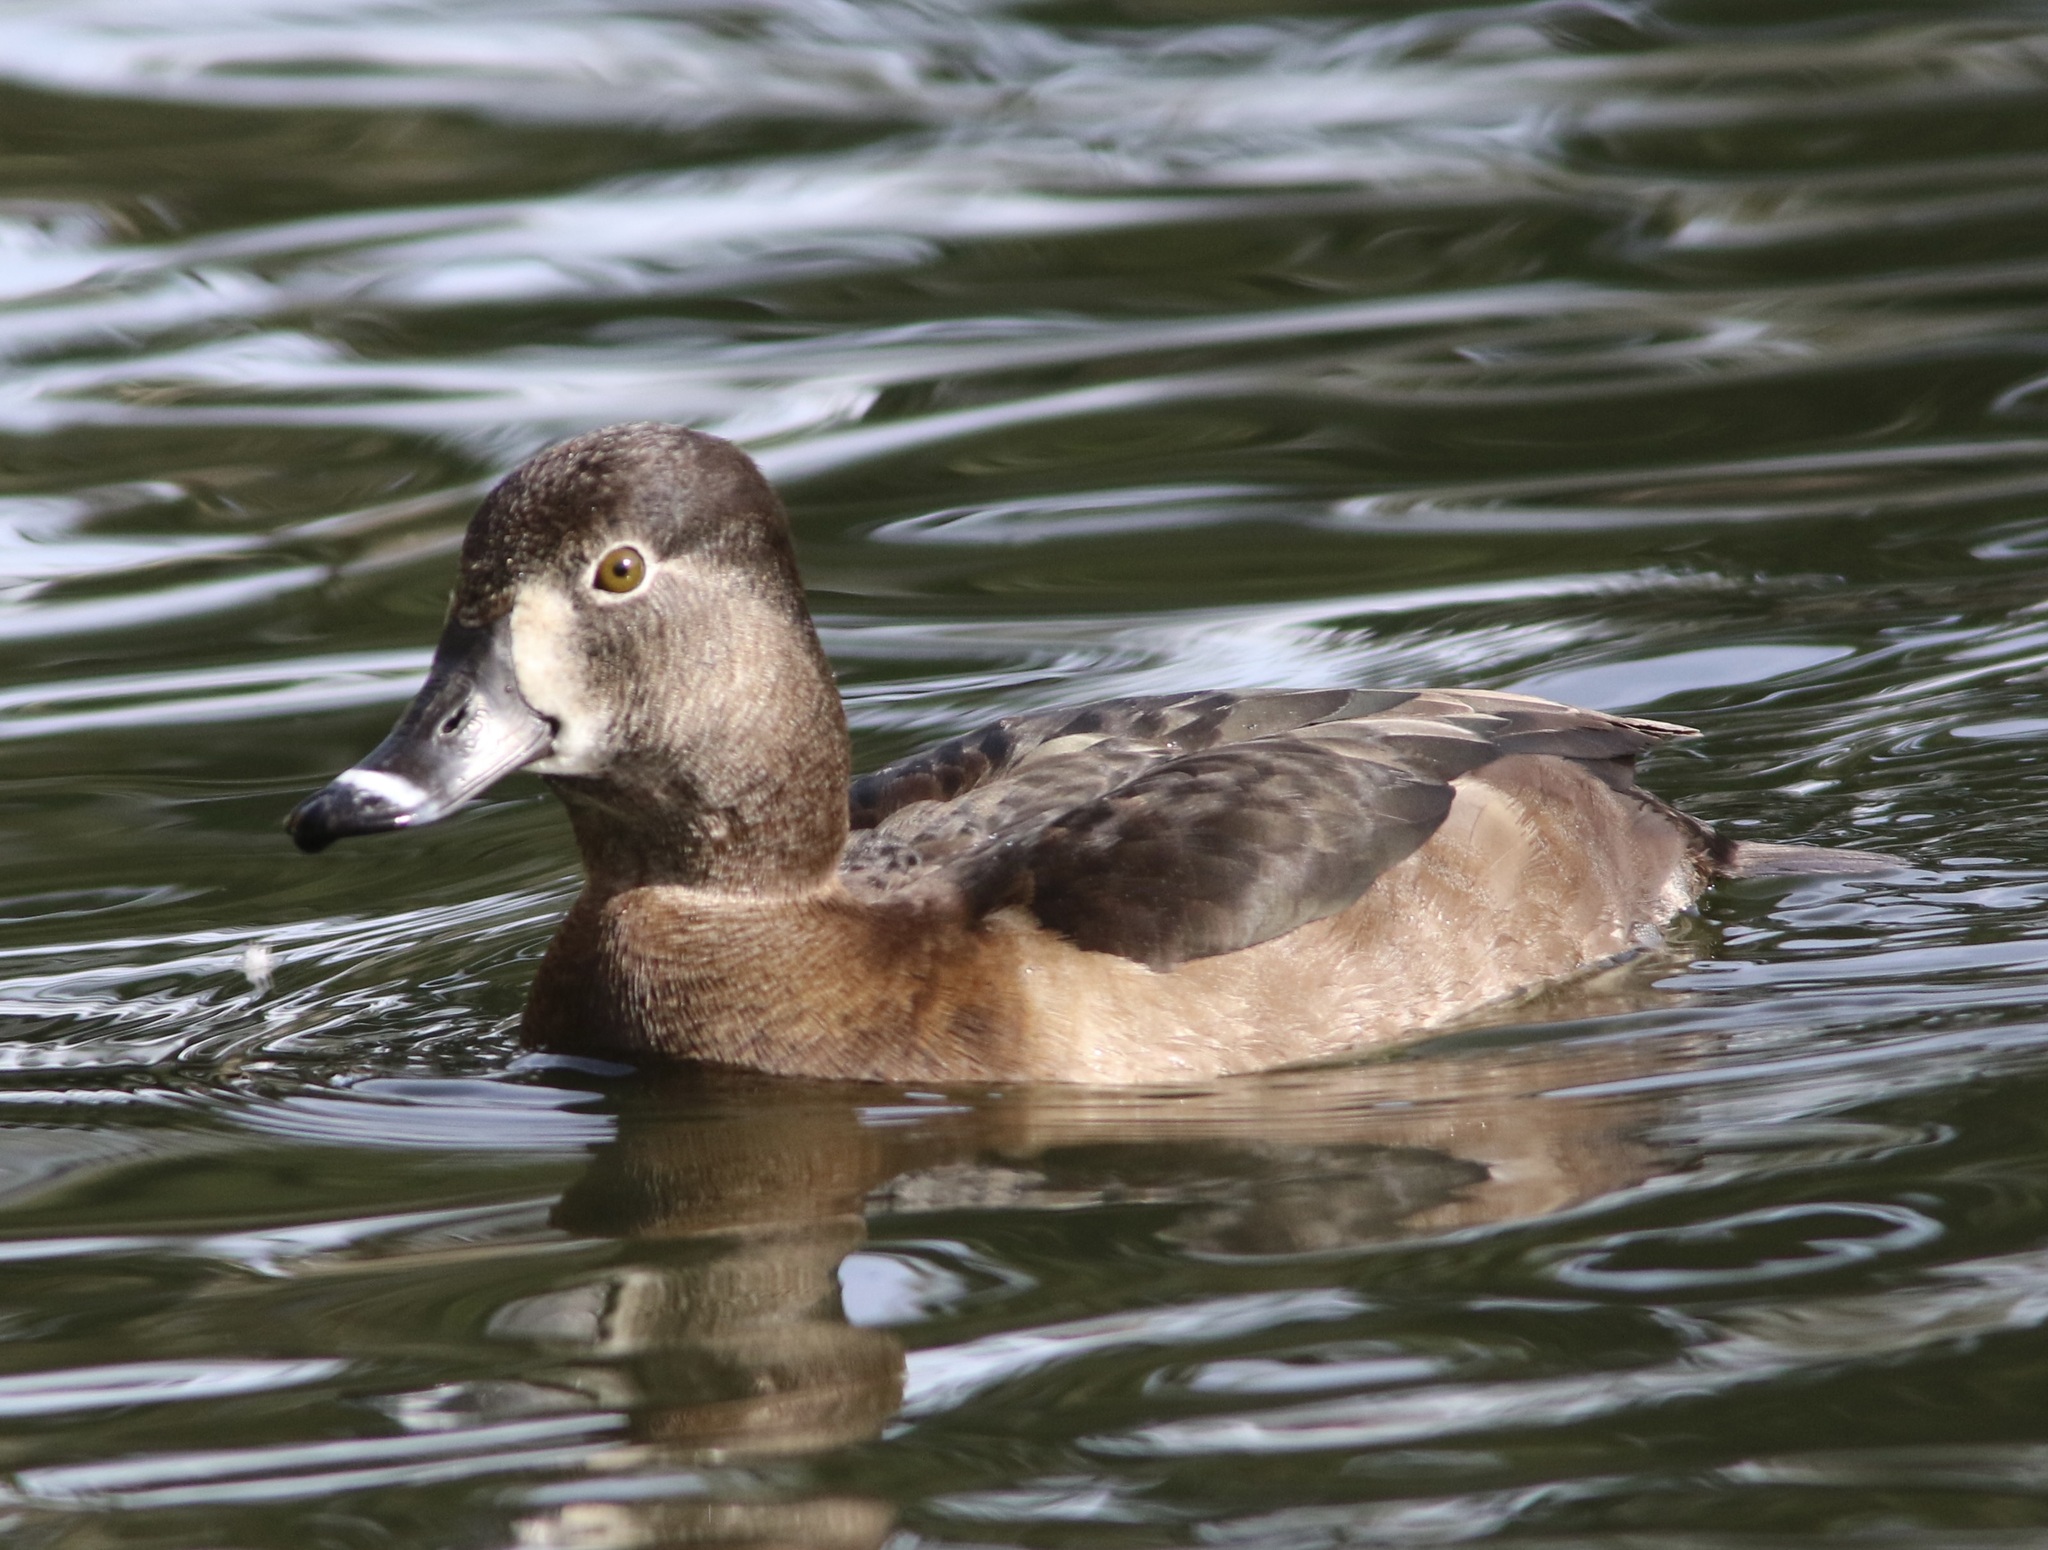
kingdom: Animalia
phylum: Chordata
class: Aves
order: Anseriformes
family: Anatidae
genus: Aythya
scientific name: Aythya collaris
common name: Ring-necked duck
